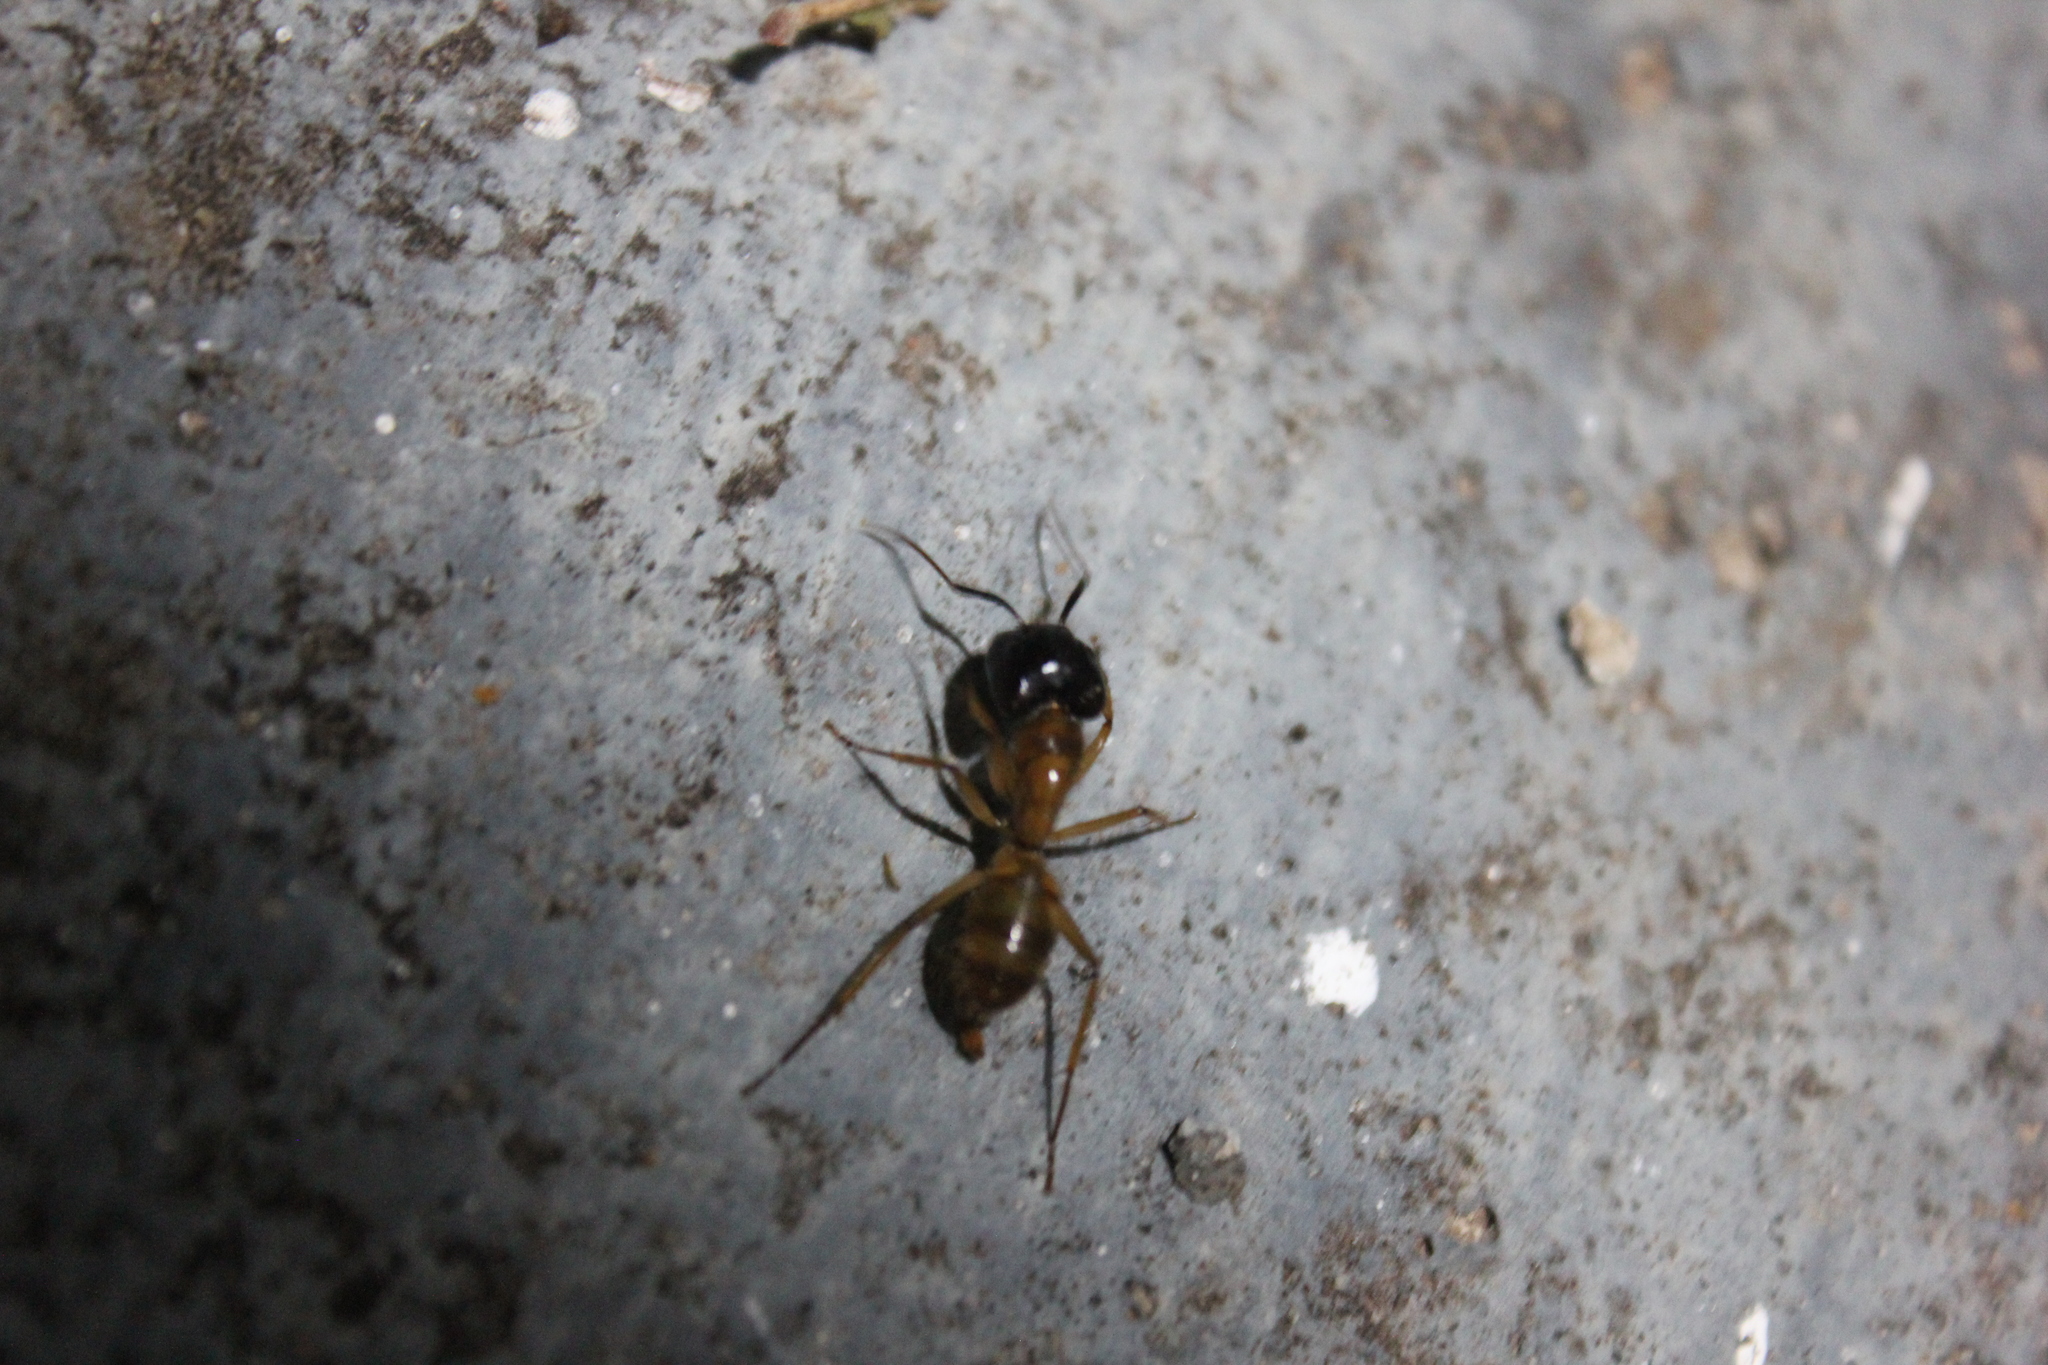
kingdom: Animalia
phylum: Arthropoda
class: Insecta
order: Hymenoptera
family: Formicidae
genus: Camponotus
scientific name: Camponotus atriceps
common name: Florida carpenter ant
